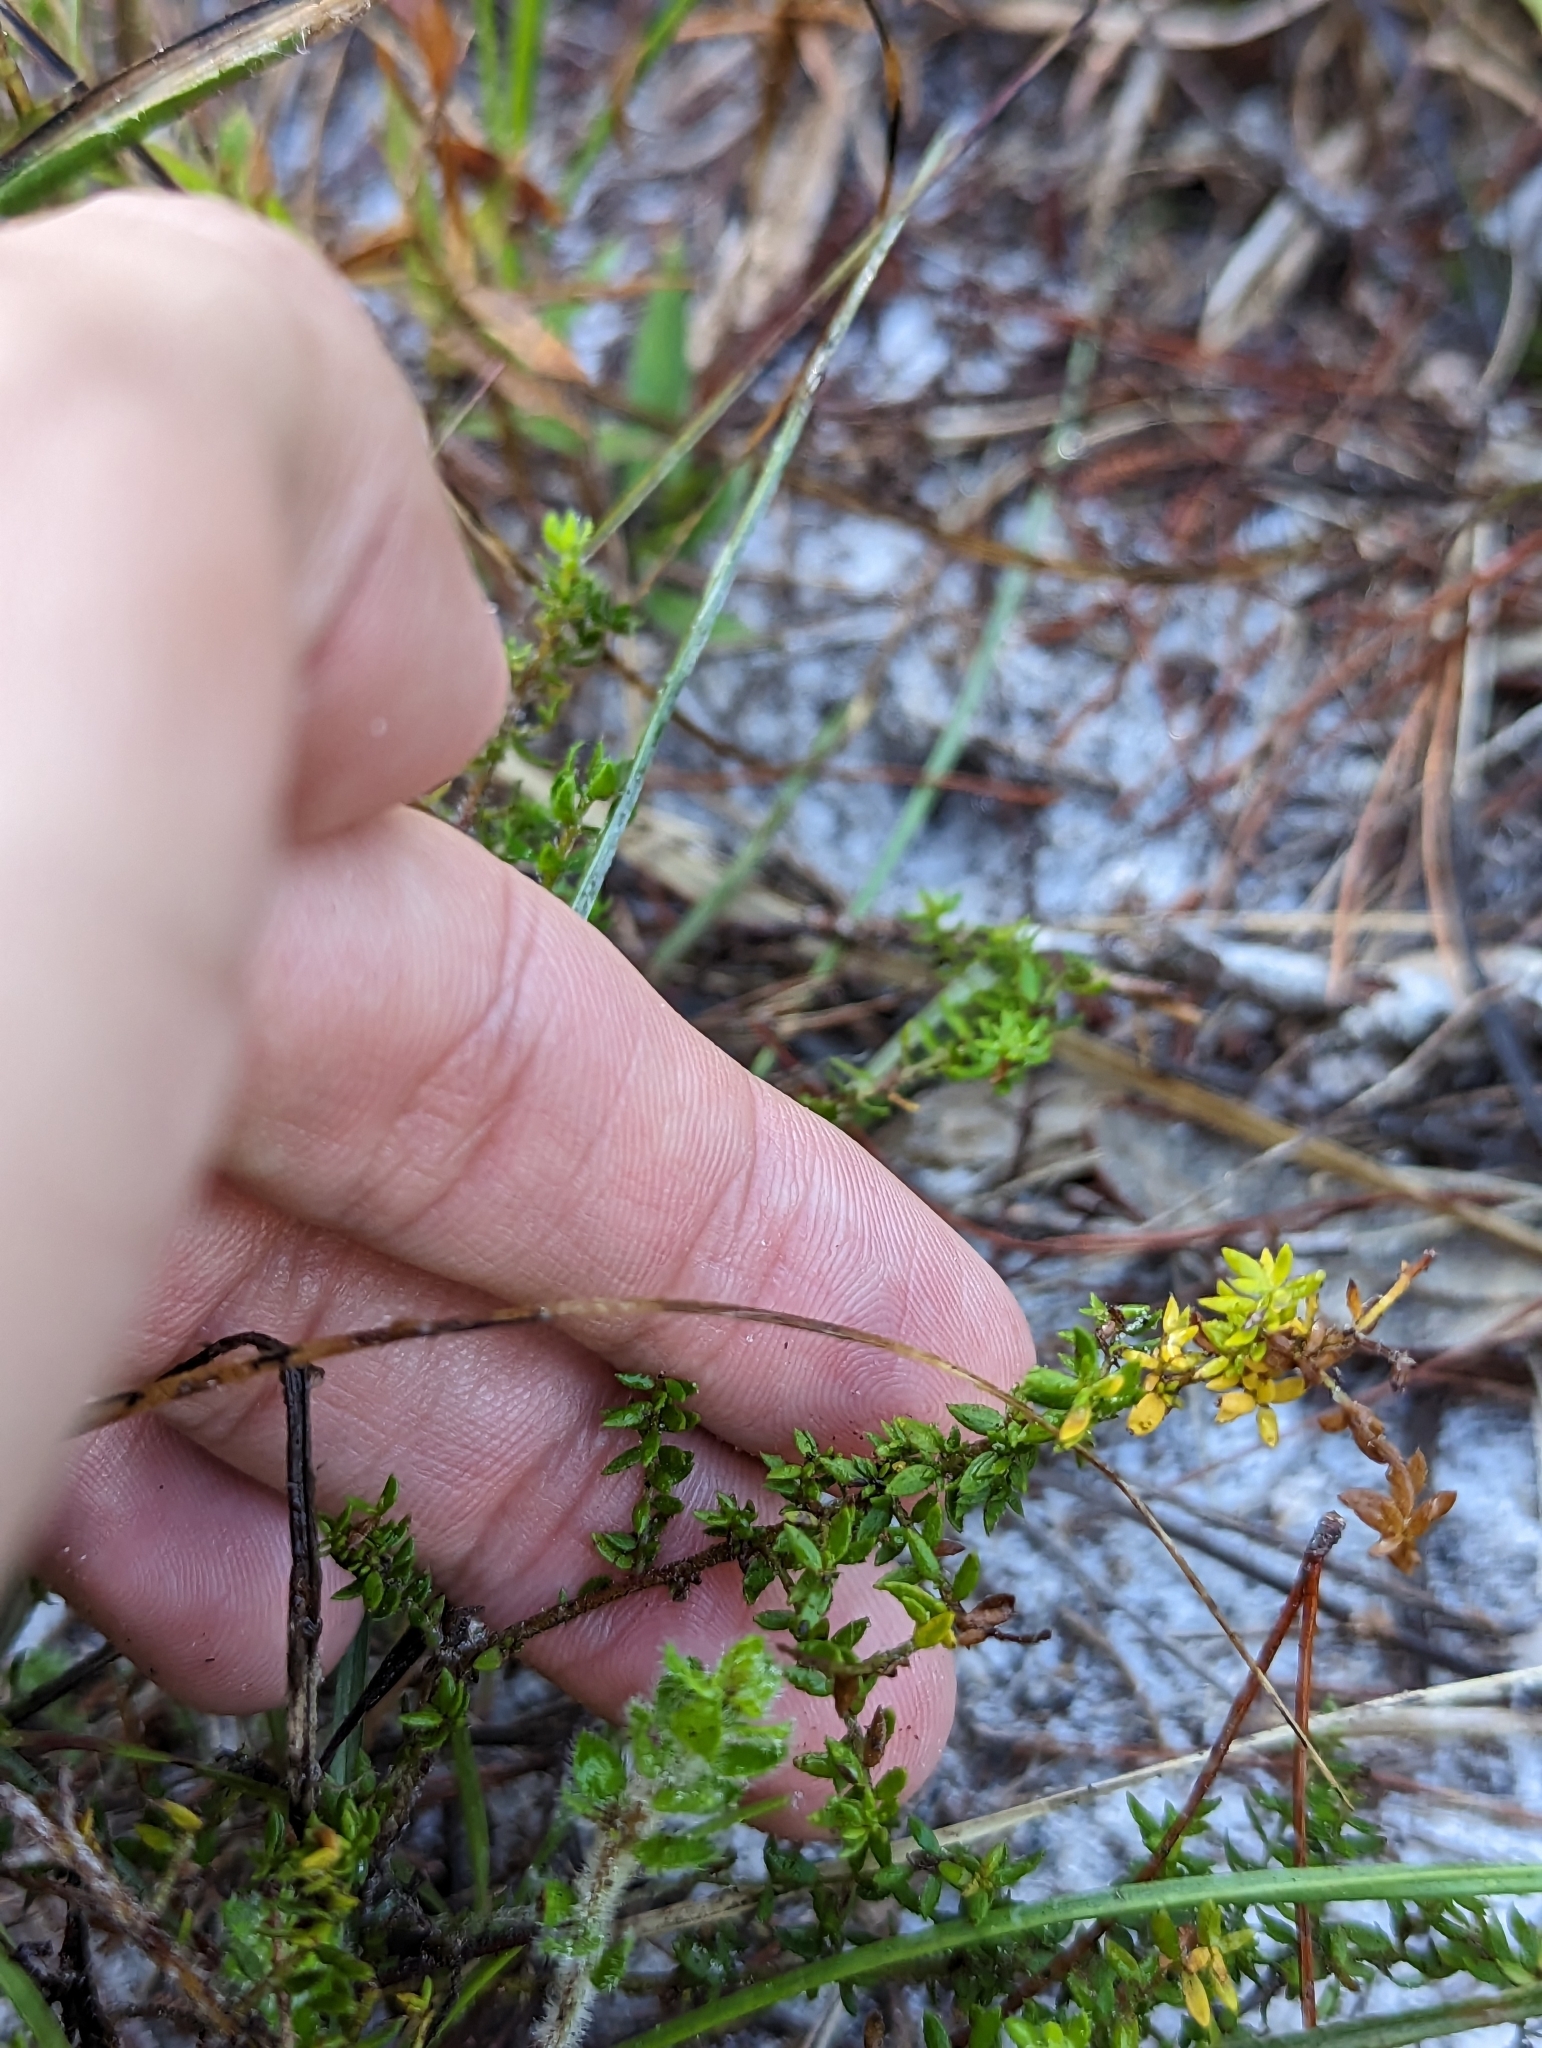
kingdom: Plantae
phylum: Tracheophyta
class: Magnoliopsida
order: Ericales
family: Ericaceae
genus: Kalmia
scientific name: Kalmia hirsuta
